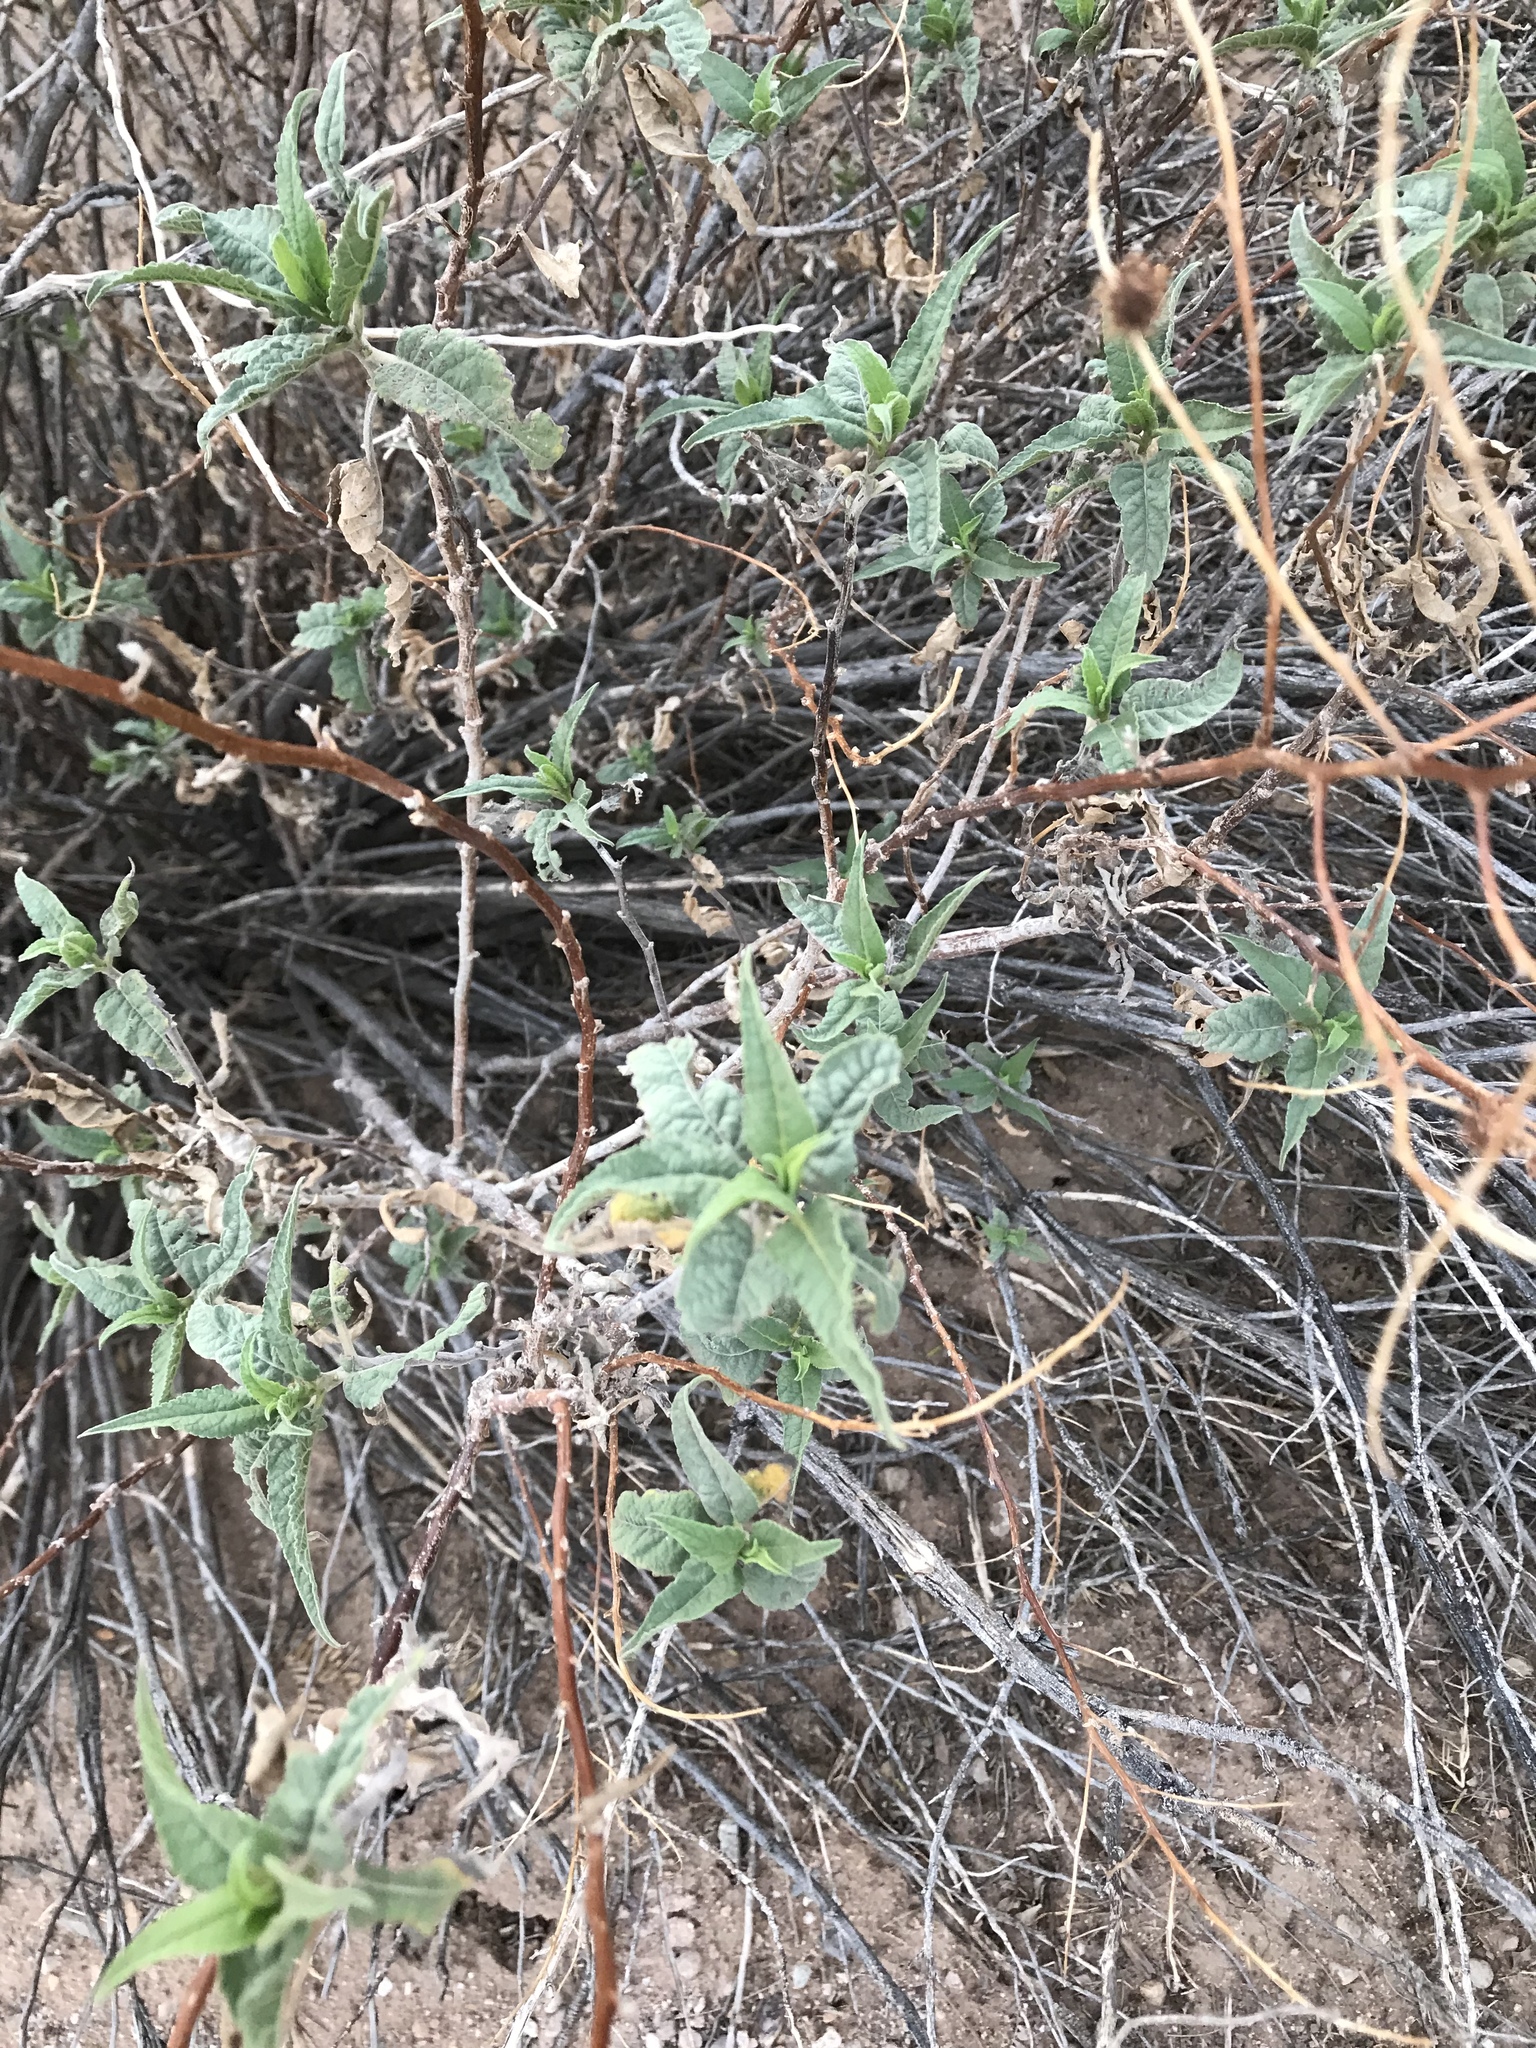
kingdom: Plantae
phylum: Tracheophyta
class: Magnoliopsida
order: Asterales
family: Asteraceae
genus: Ambrosia
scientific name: Ambrosia ambrosioides
